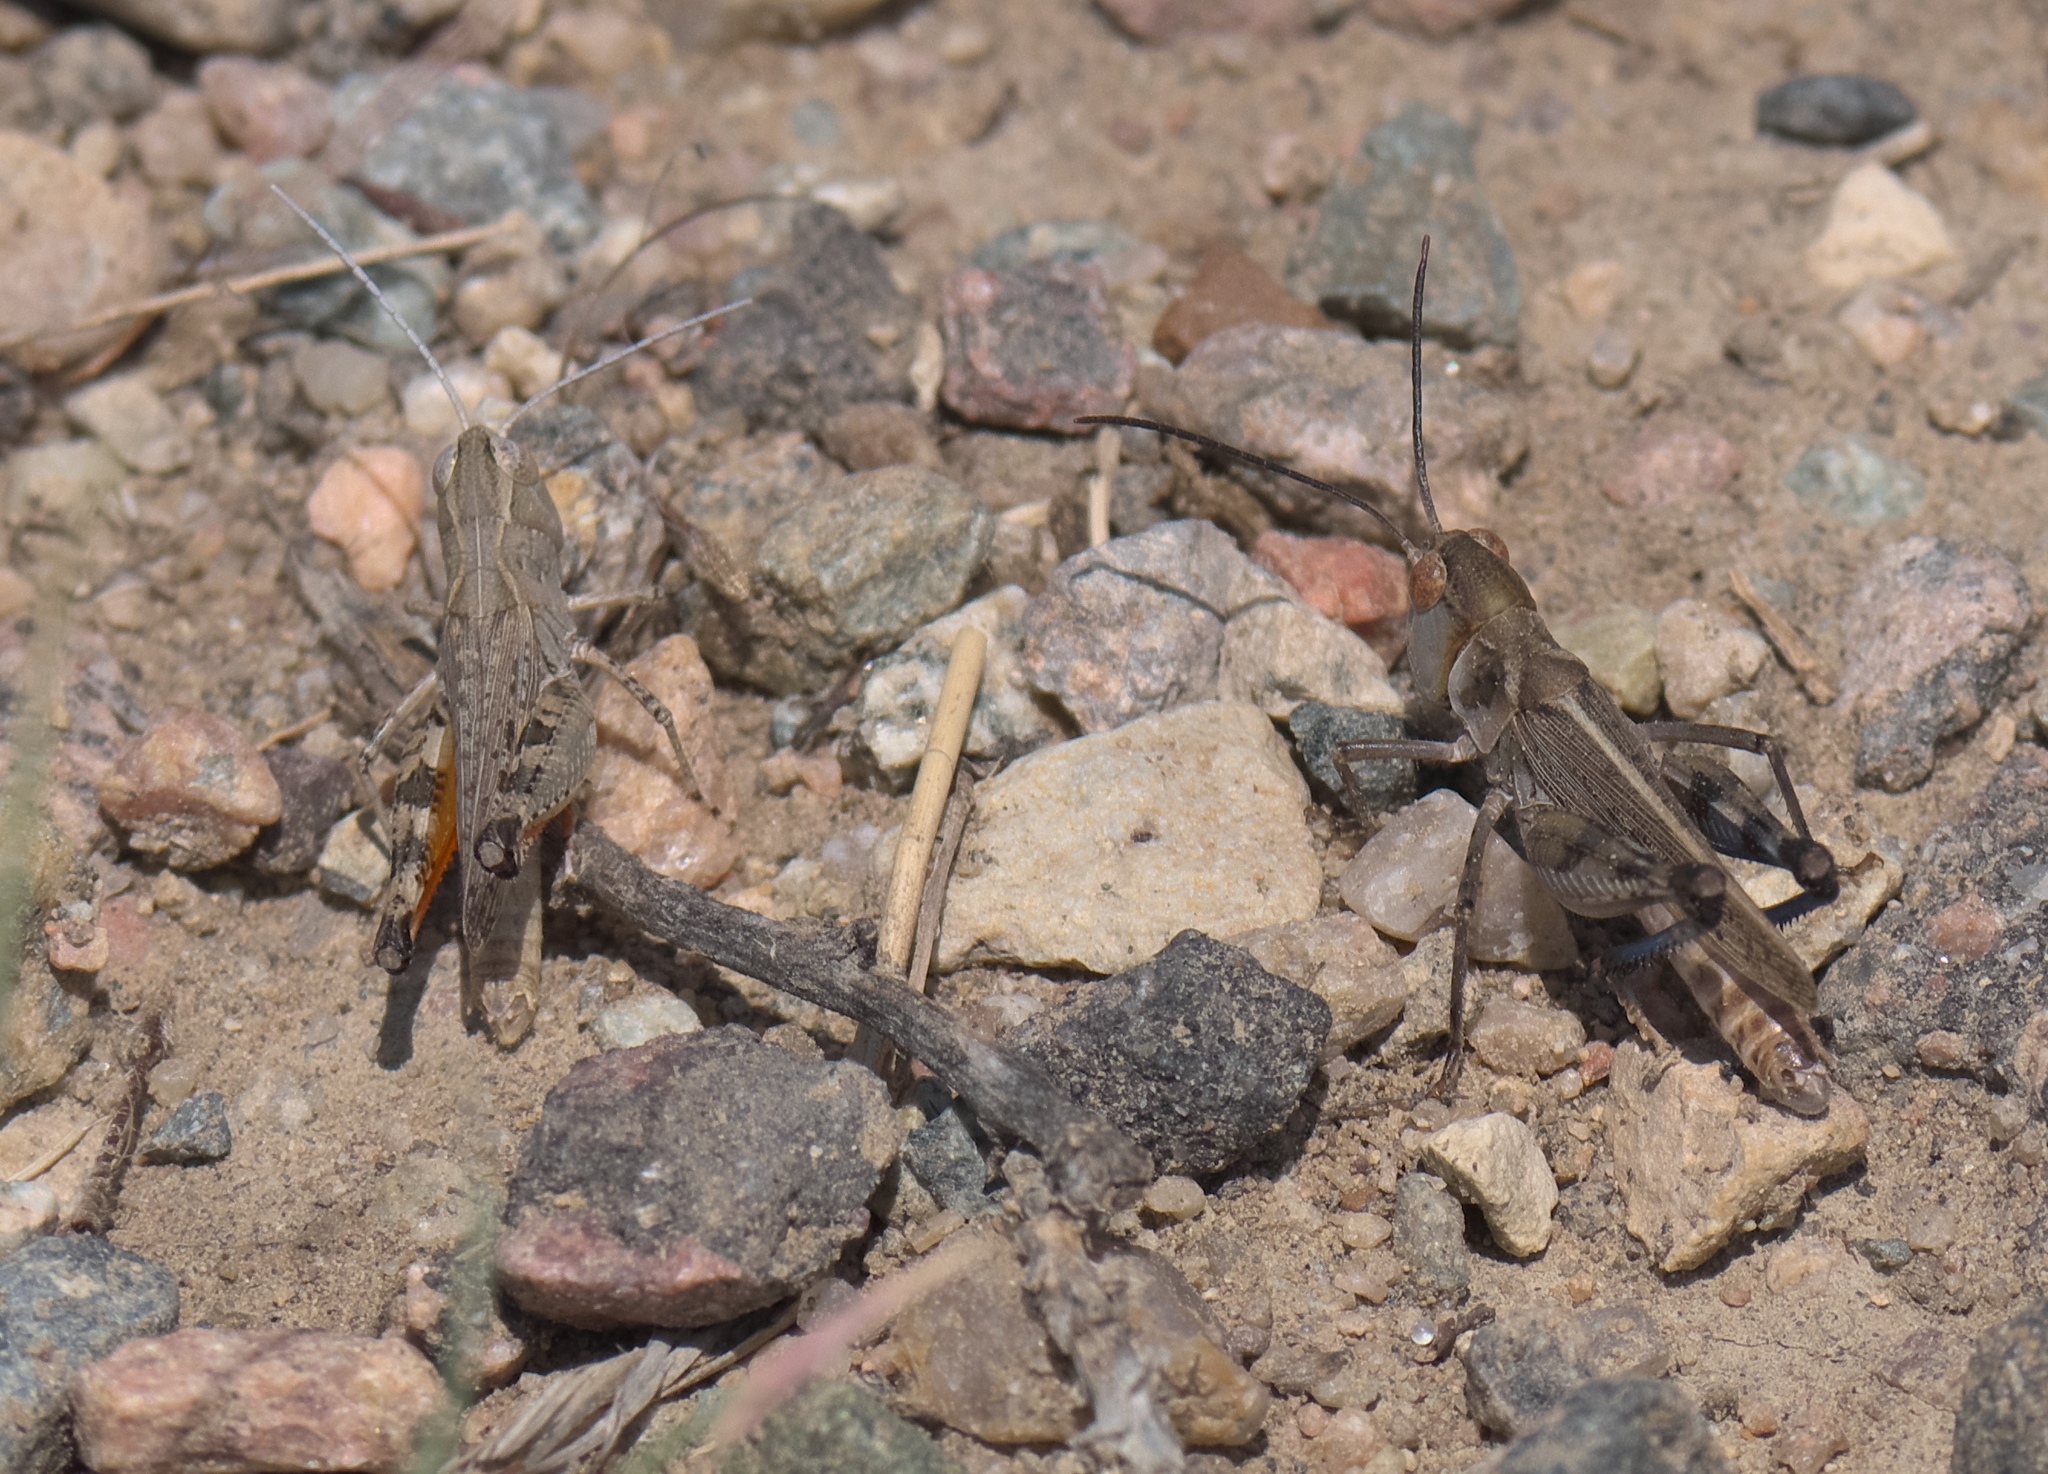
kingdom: Animalia
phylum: Arthropoda
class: Insecta
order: Orthoptera
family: Acrididae
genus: Ageneotettix
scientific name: Ageneotettix deorum
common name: White-whiskered grasshopper
